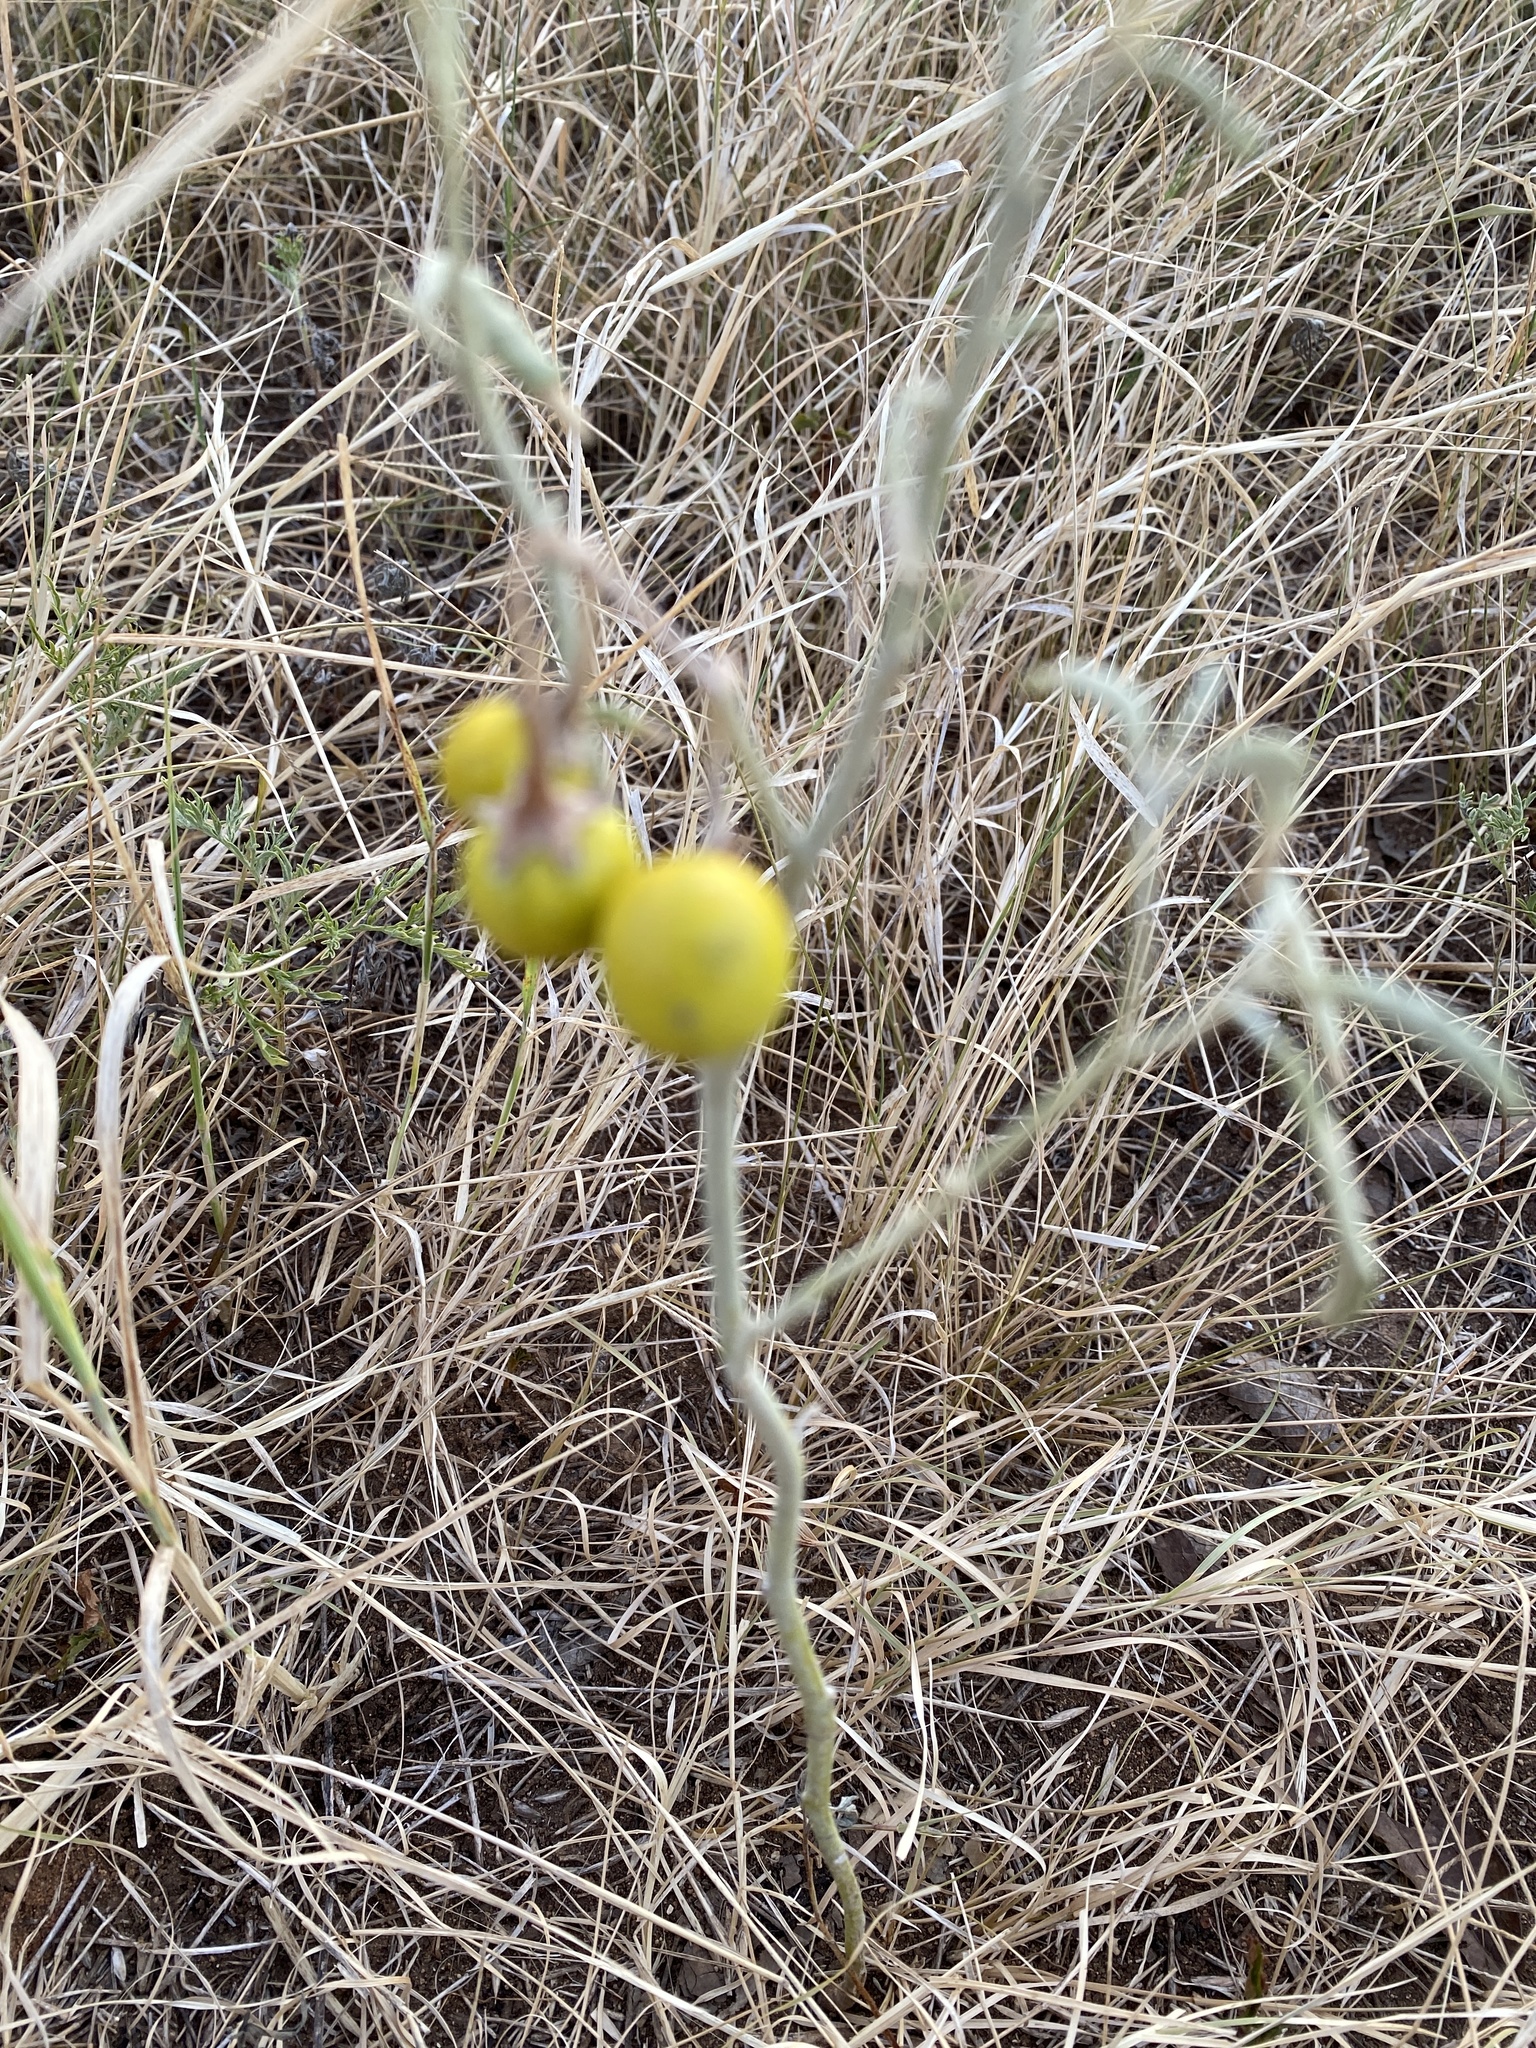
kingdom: Plantae
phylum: Tracheophyta
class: Magnoliopsida
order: Solanales
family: Solanaceae
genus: Solanum
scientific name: Solanum elaeagnifolium
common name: Silverleaf nightshade
